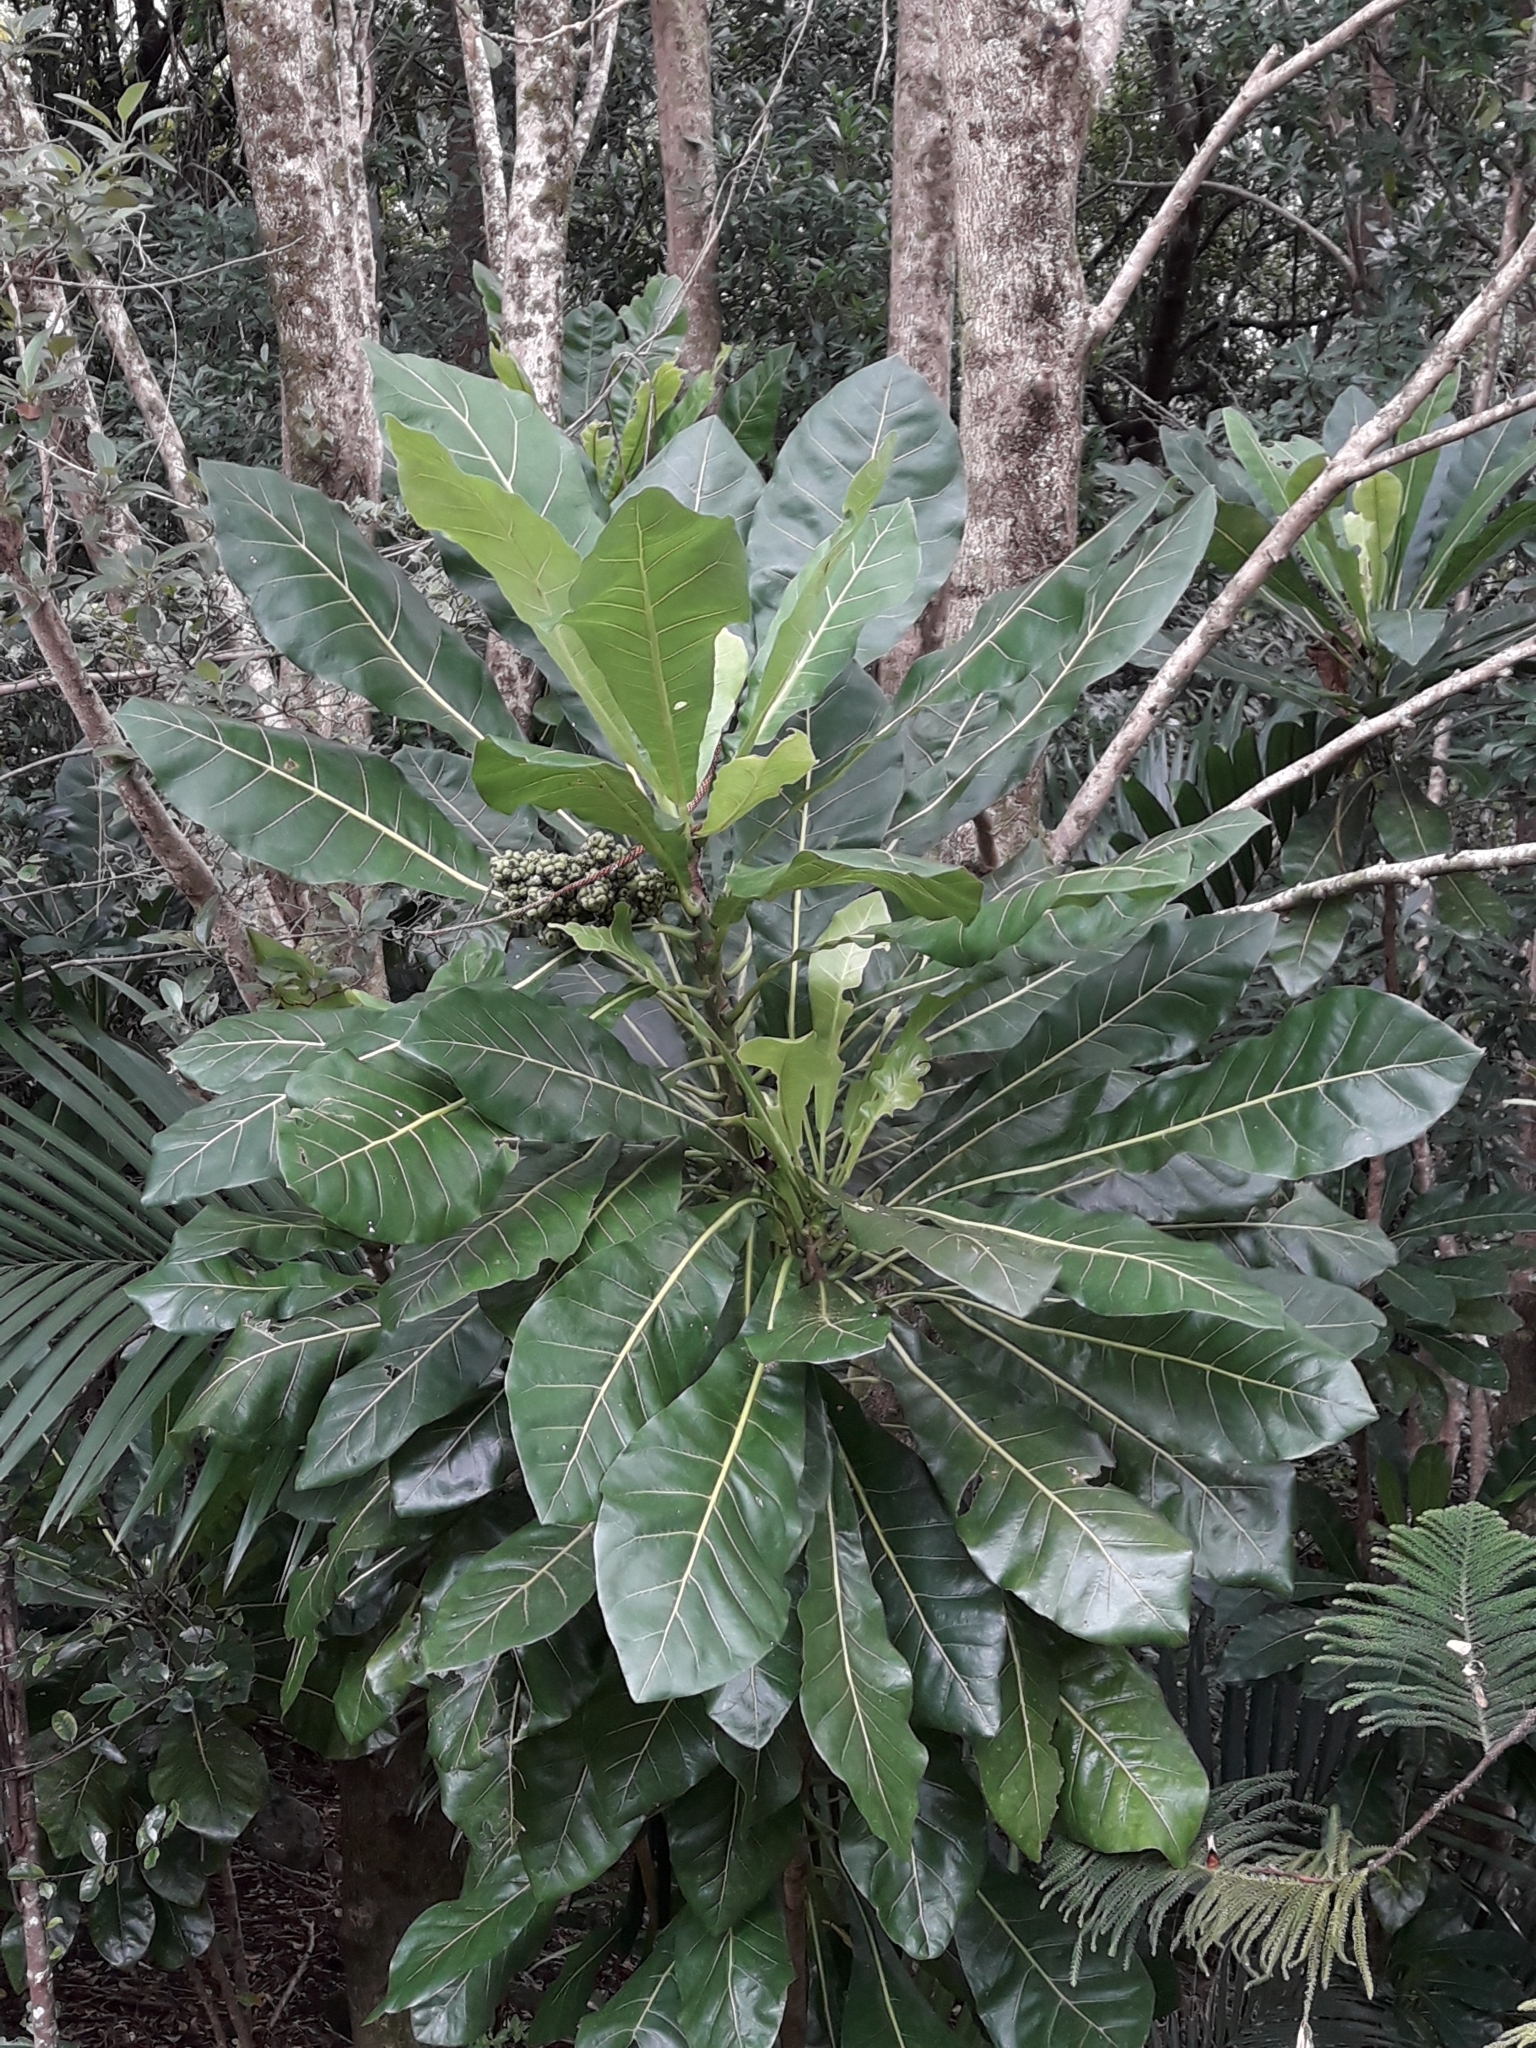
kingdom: Plantae
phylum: Tracheophyta
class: Magnoliopsida
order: Apiales
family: Araliaceae
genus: Meryta
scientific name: Meryta latifolia
